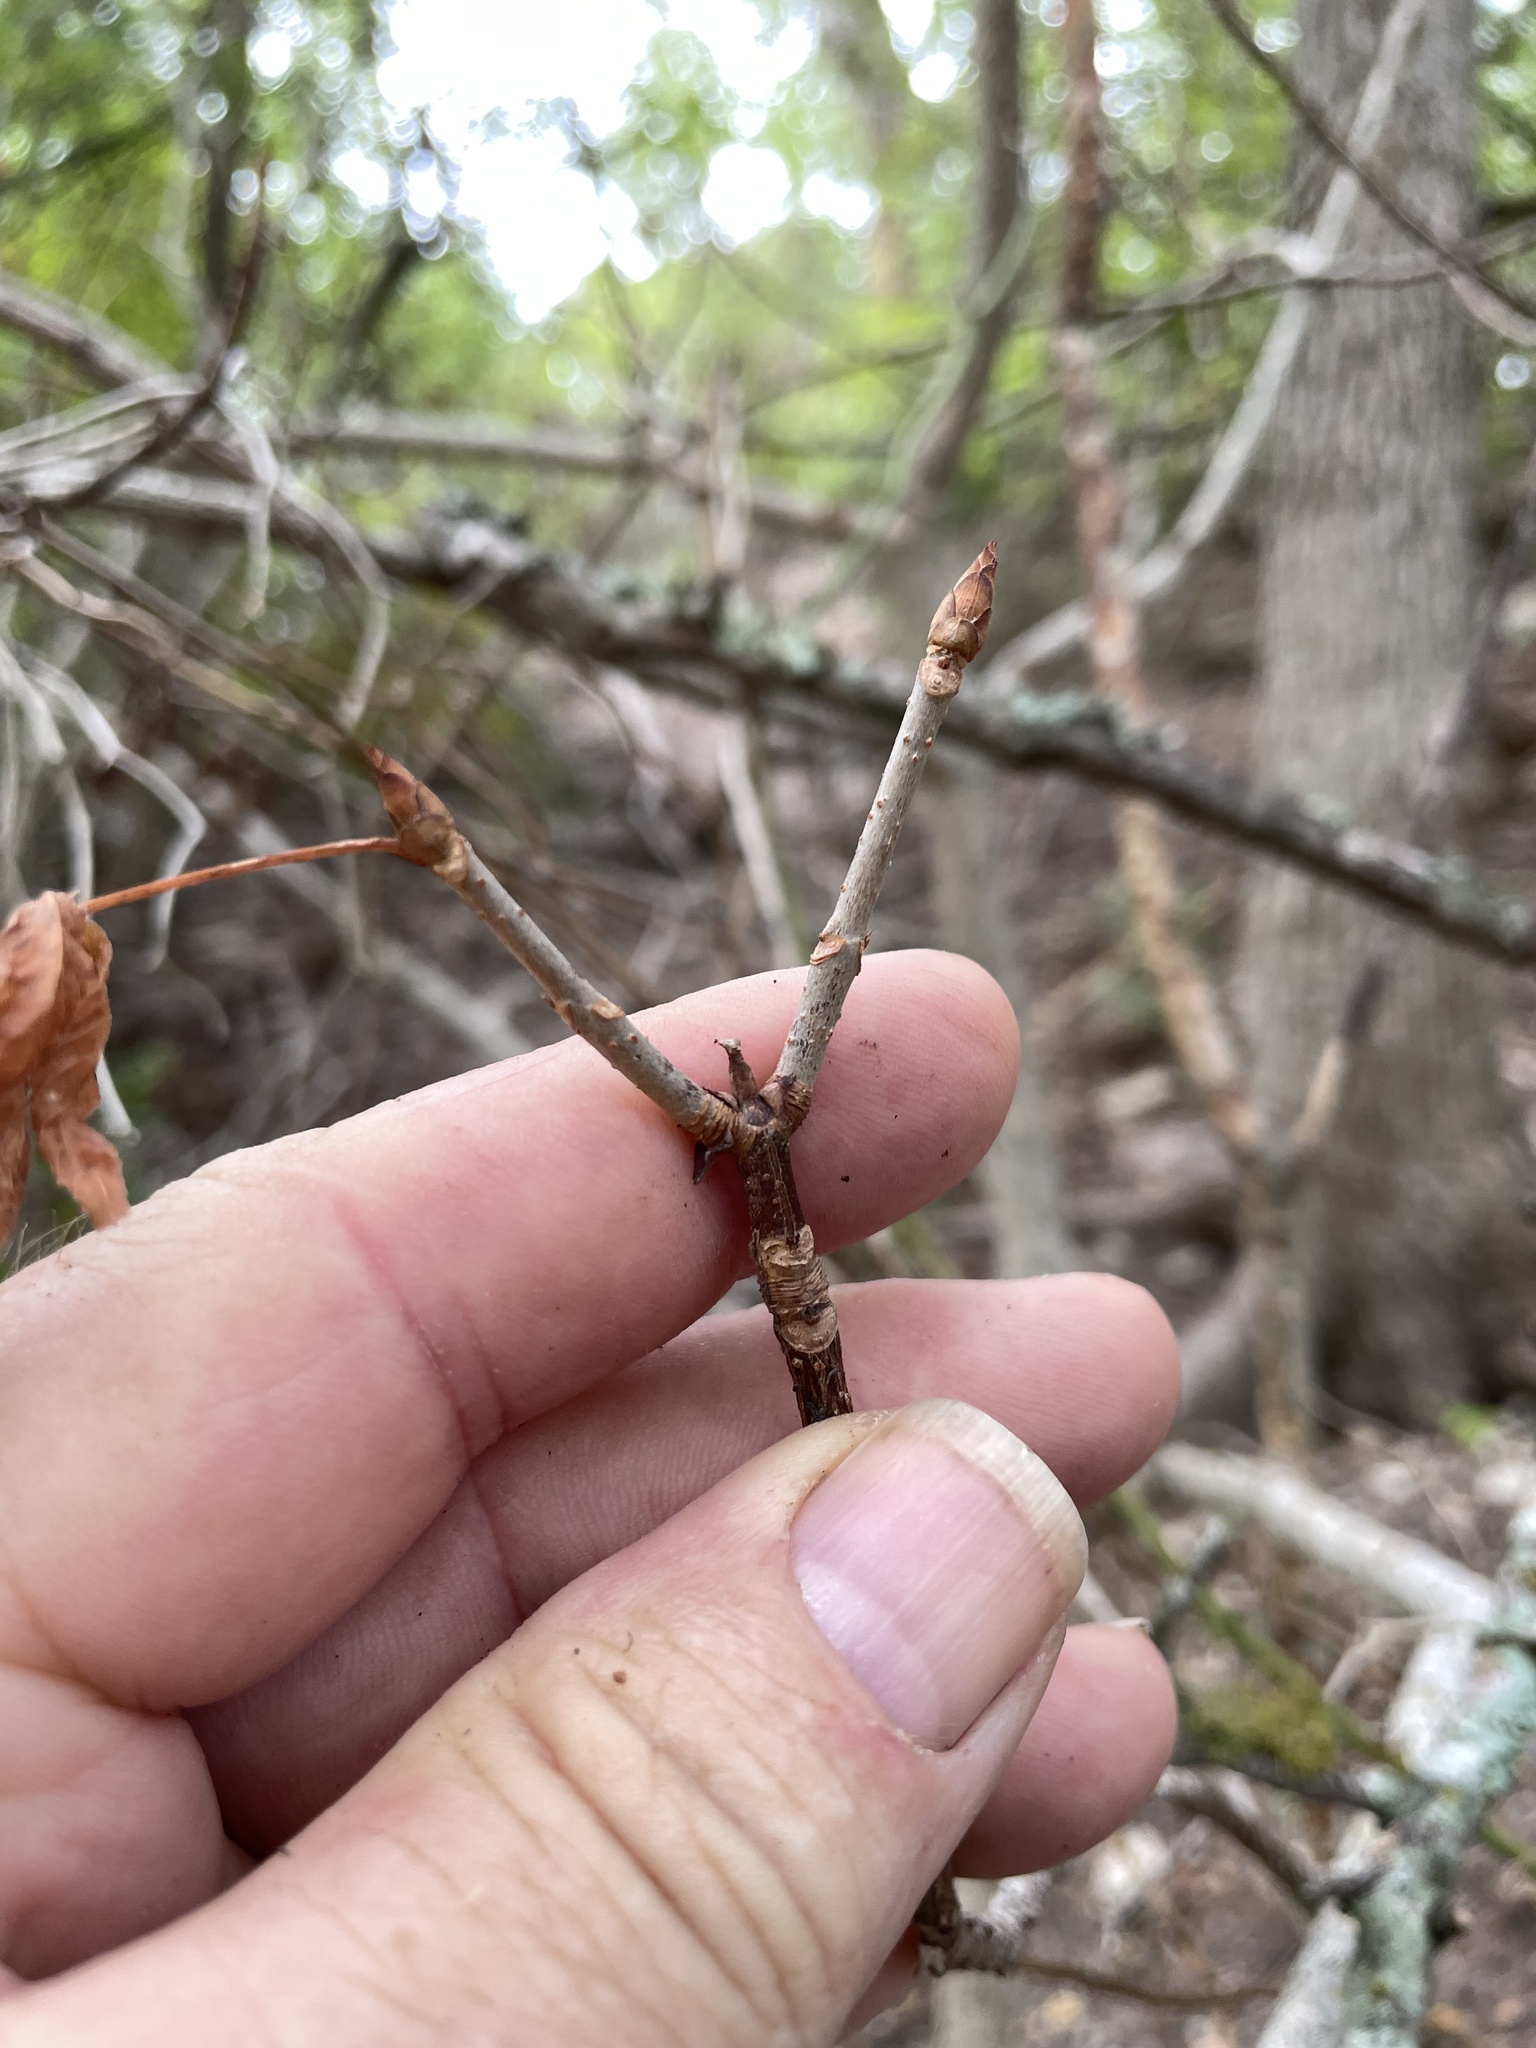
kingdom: Plantae
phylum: Tracheophyta
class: Magnoliopsida
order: Sapindales
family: Sapindaceae
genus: Aesculus
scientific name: Aesculus glabra
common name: Ohio buckeye
